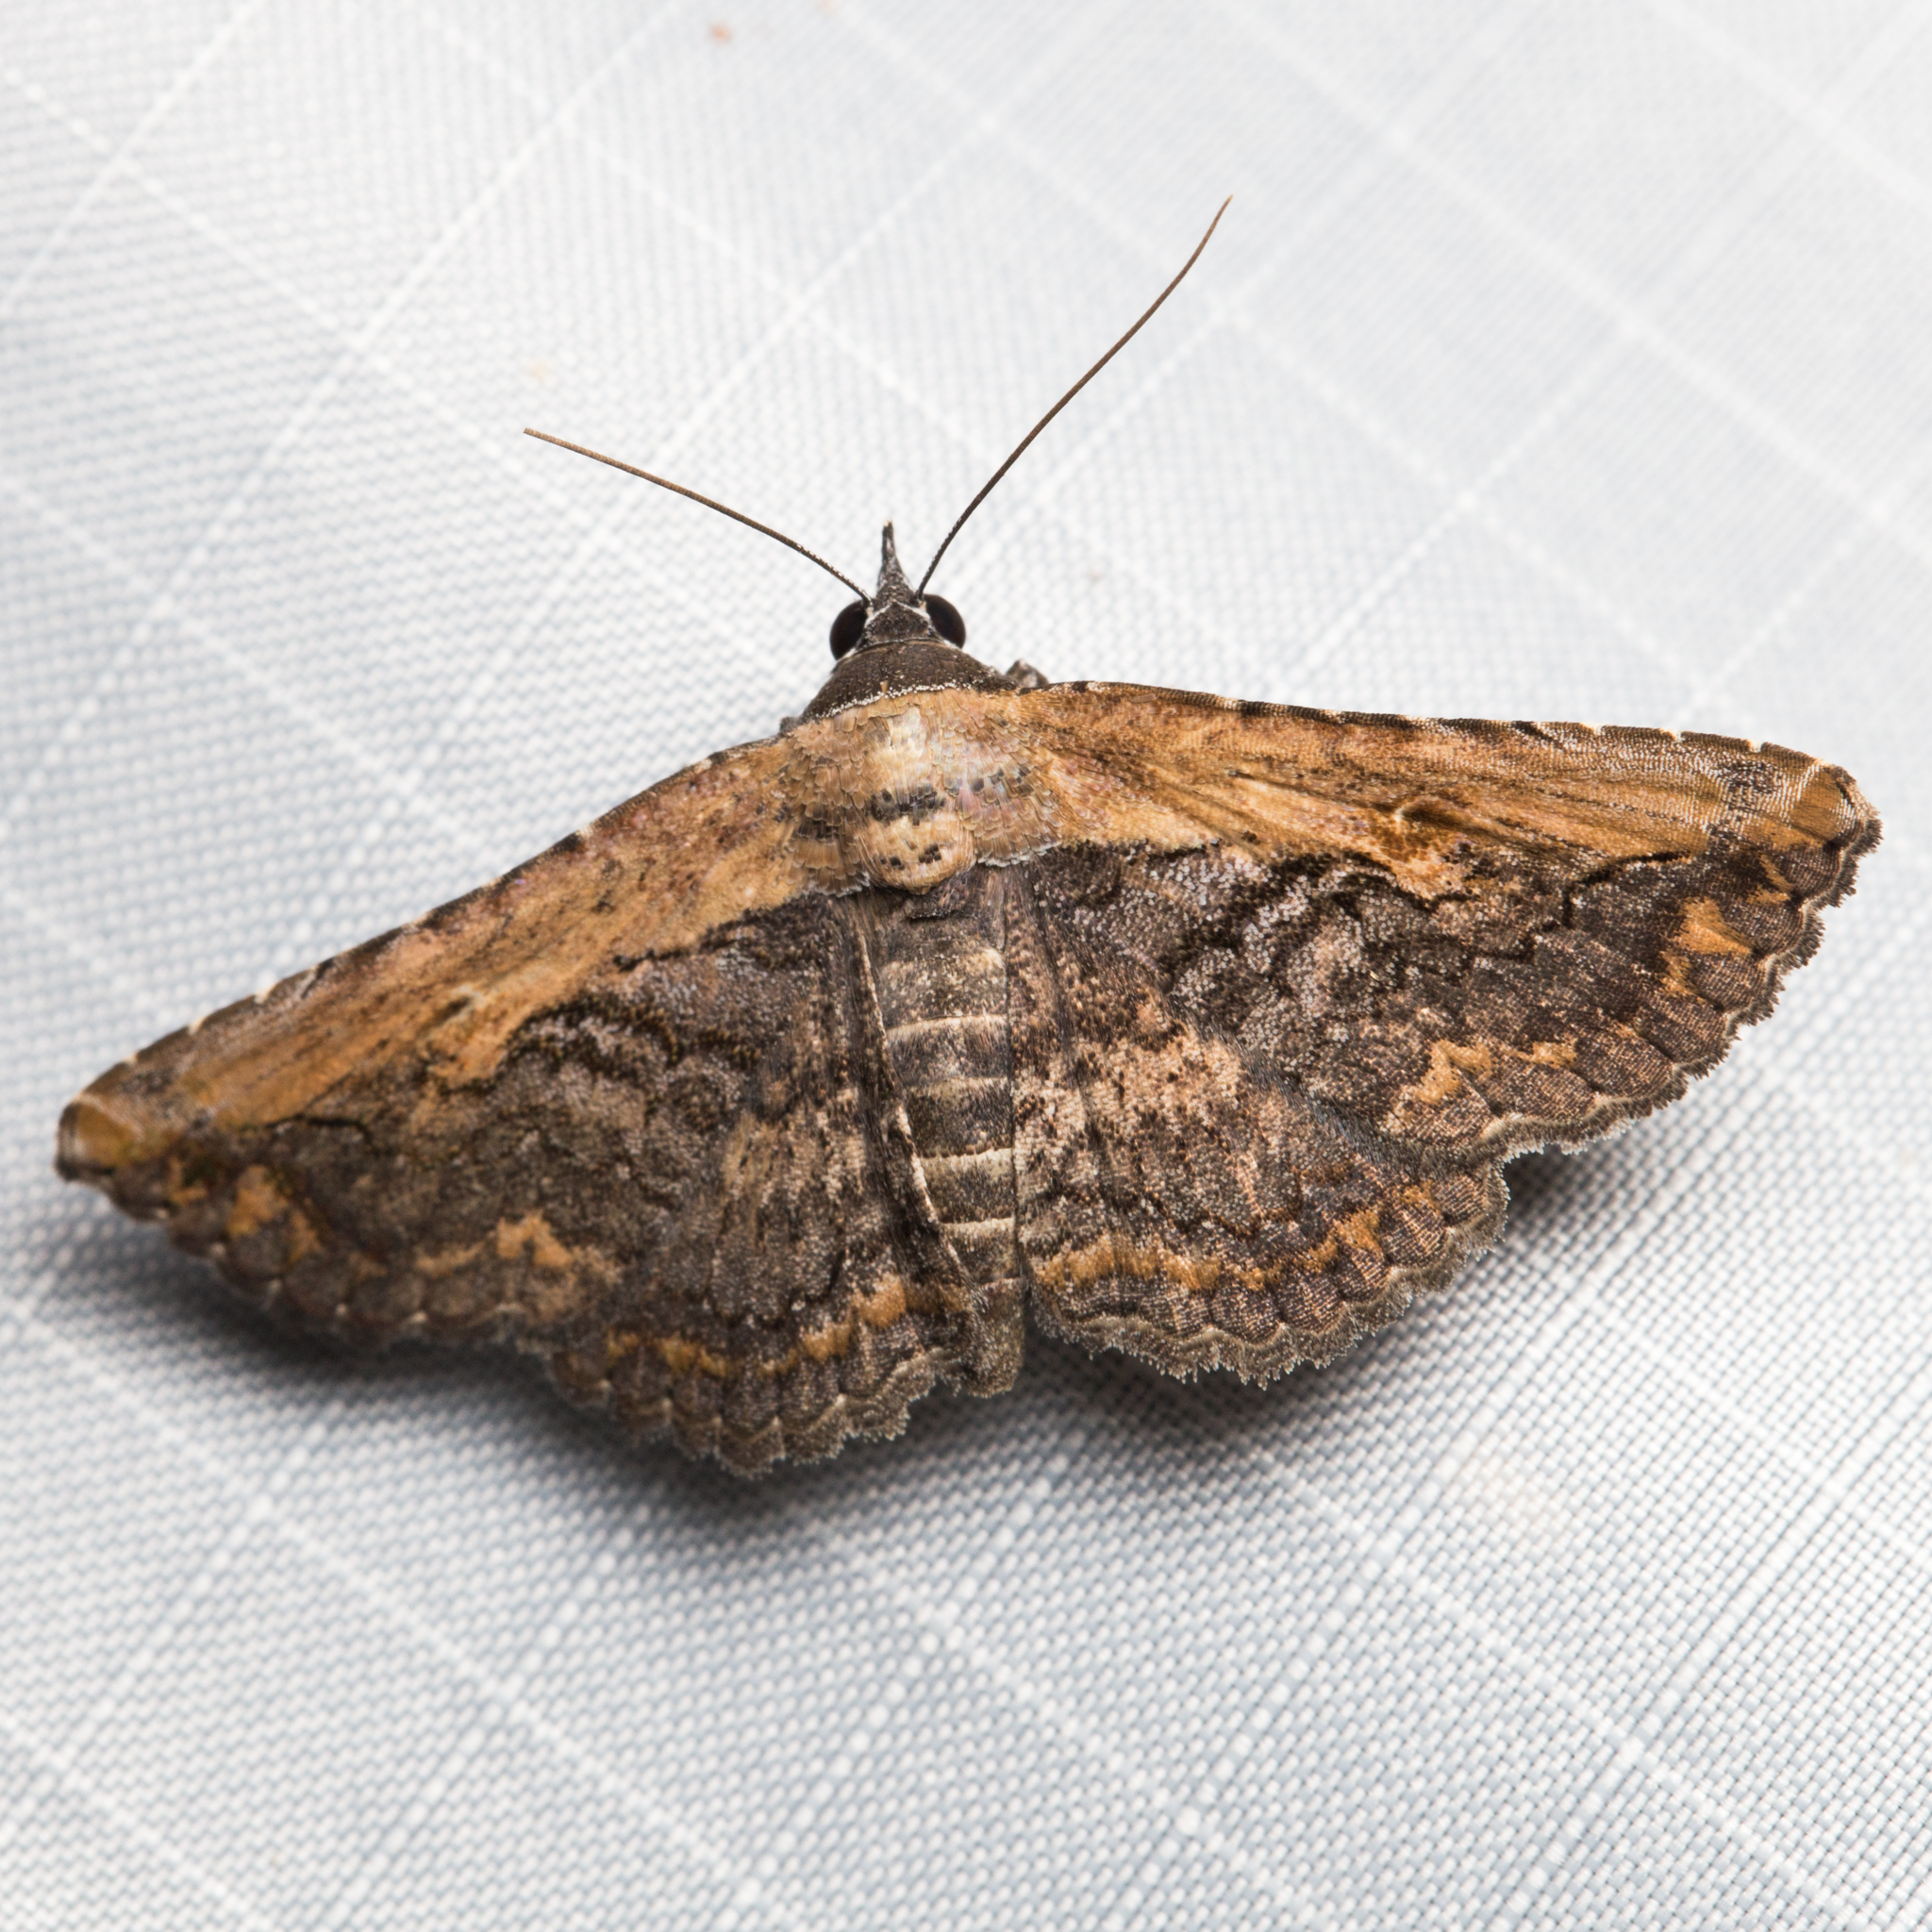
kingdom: Animalia
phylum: Arthropoda
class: Insecta
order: Lepidoptera
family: Erebidae
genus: Selenisa
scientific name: Selenisa sueroides
